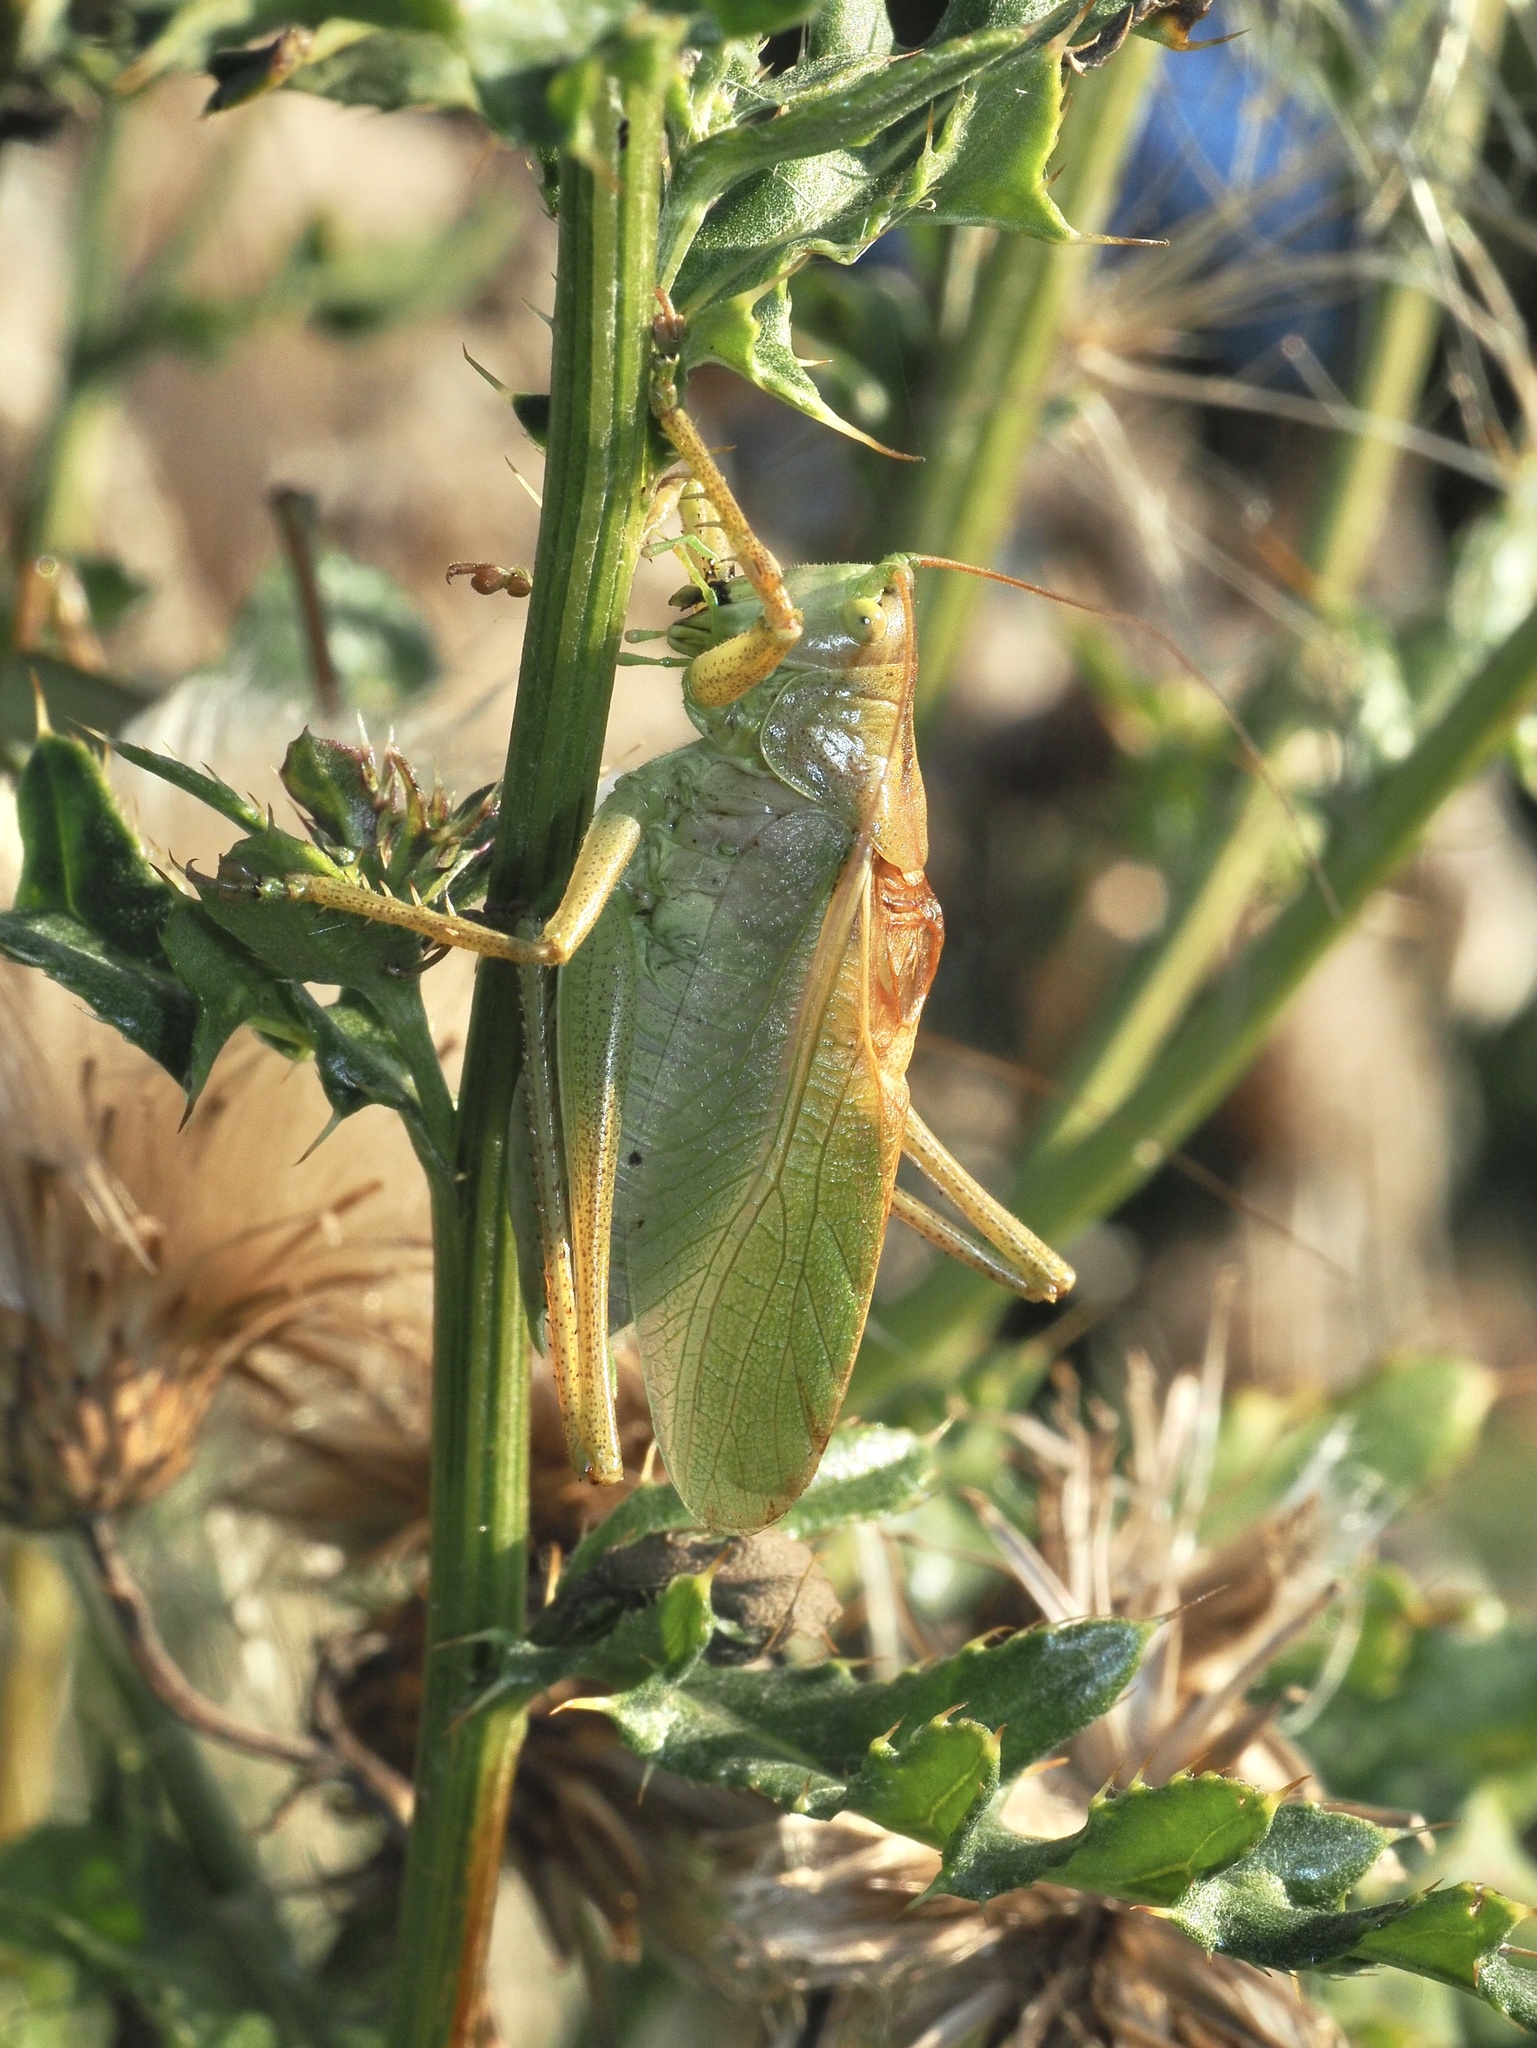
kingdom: Animalia
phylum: Arthropoda
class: Insecta
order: Orthoptera
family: Tettigoniidae
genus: Tettigonia
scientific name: Tettigonia cantans
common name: Upland green bush-cricket
